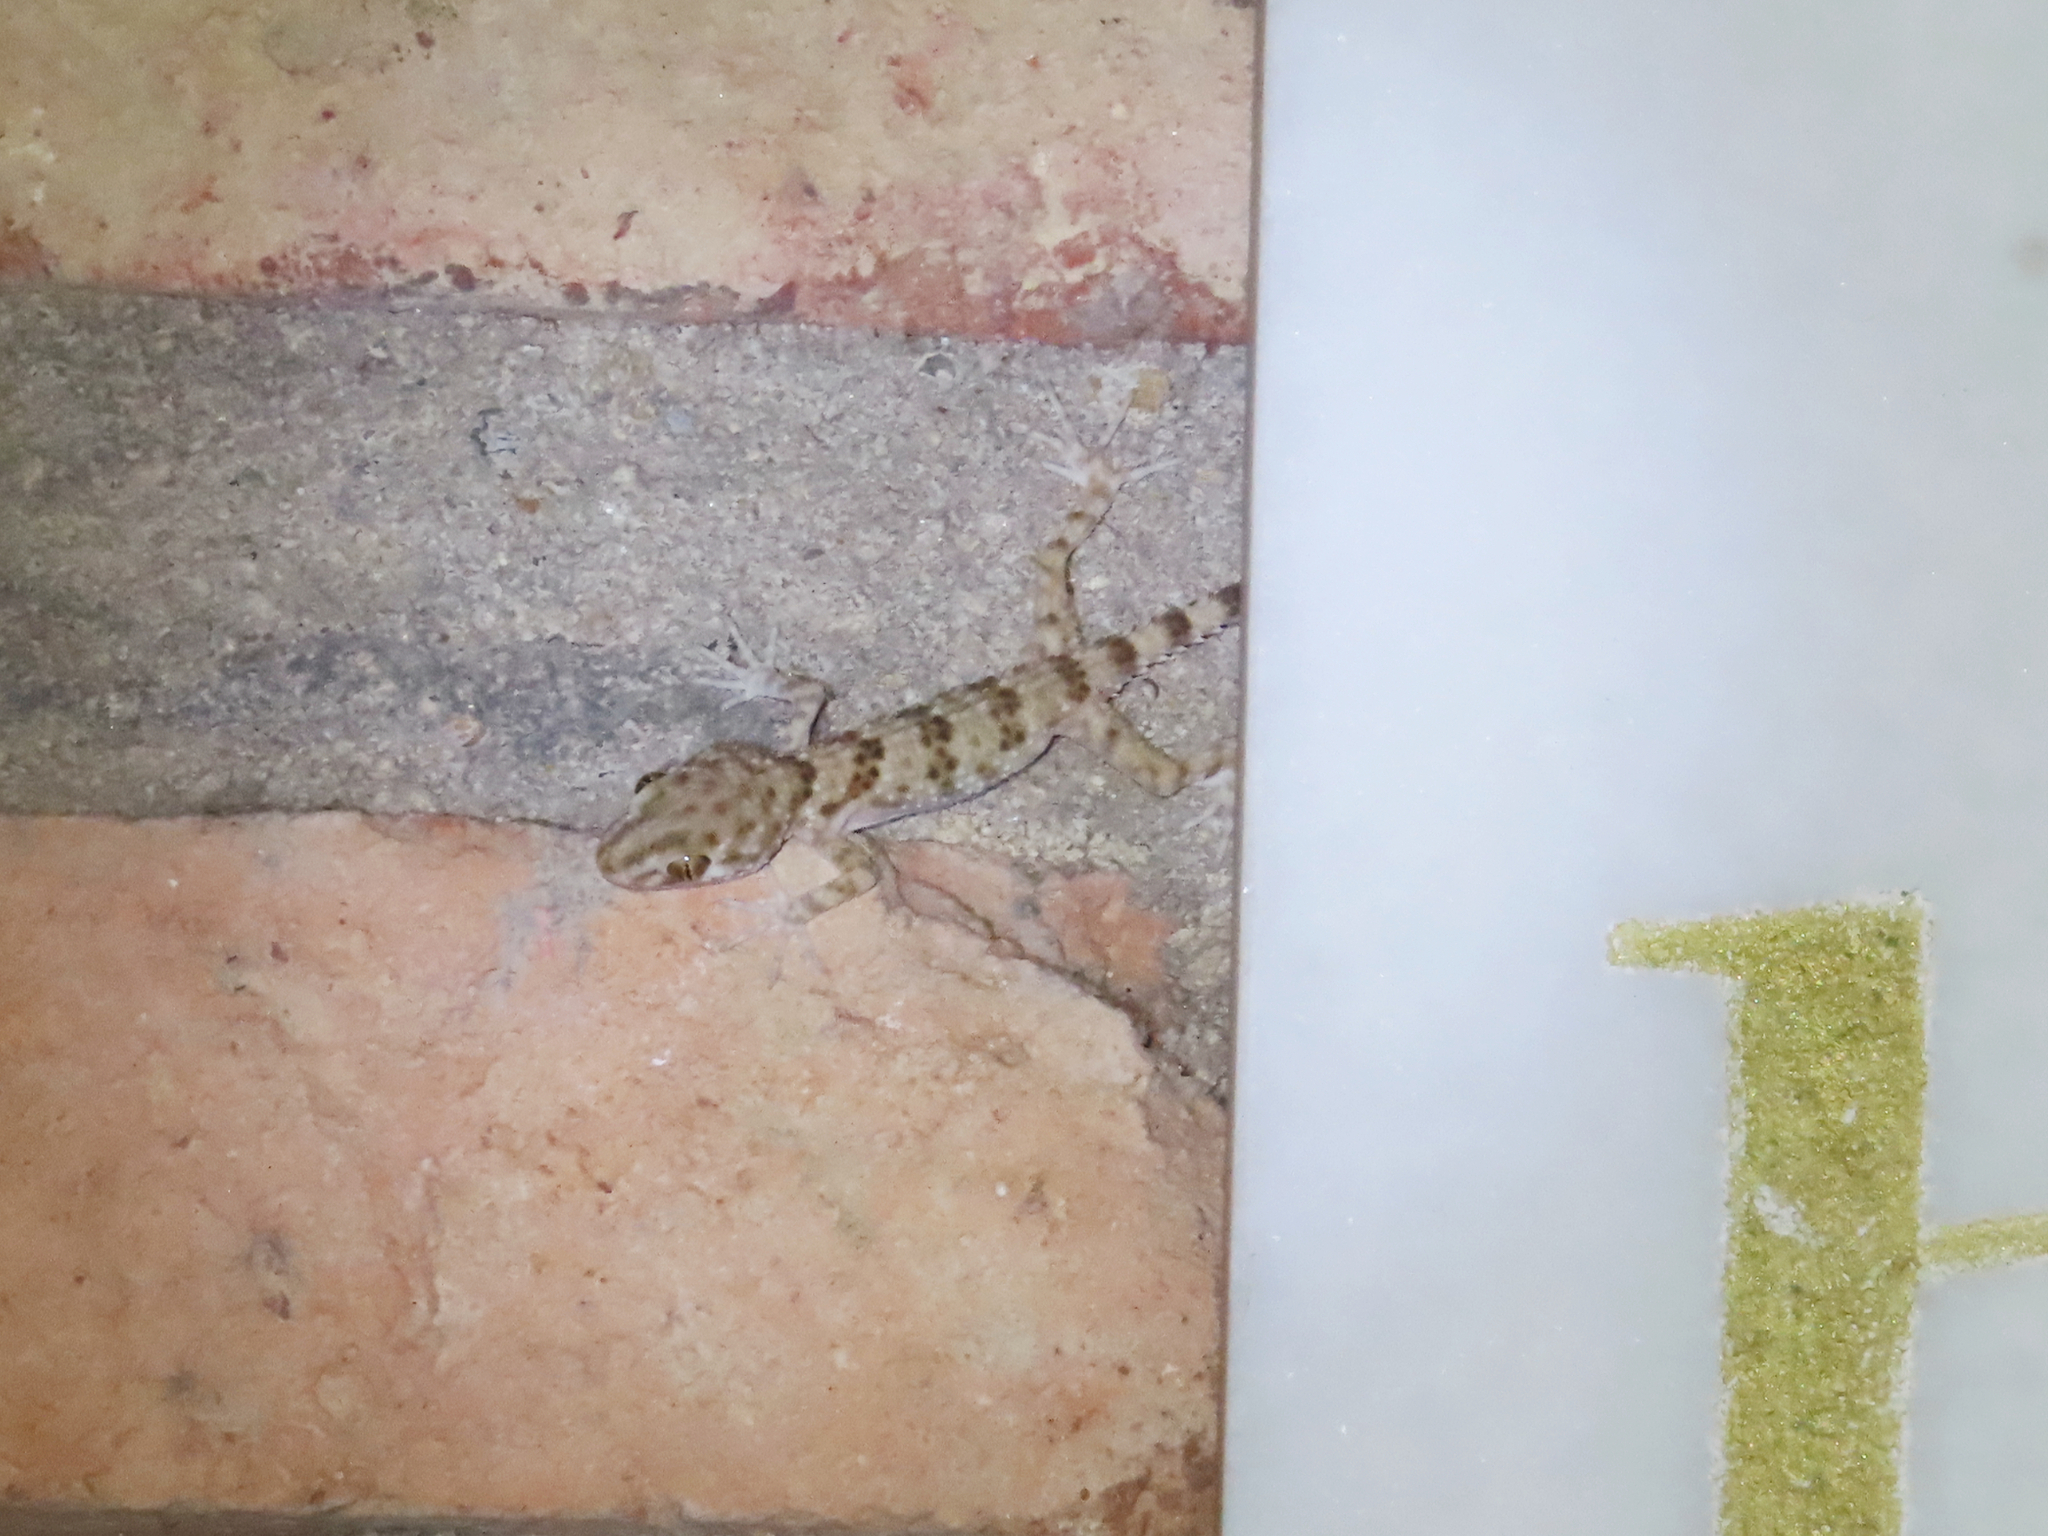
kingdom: Animalia
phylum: Chordata
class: Squamata
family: Gekkonidae
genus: Tenuidactylus
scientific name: Tenuidactylus caspius
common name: Caspian bent-toed gecko
